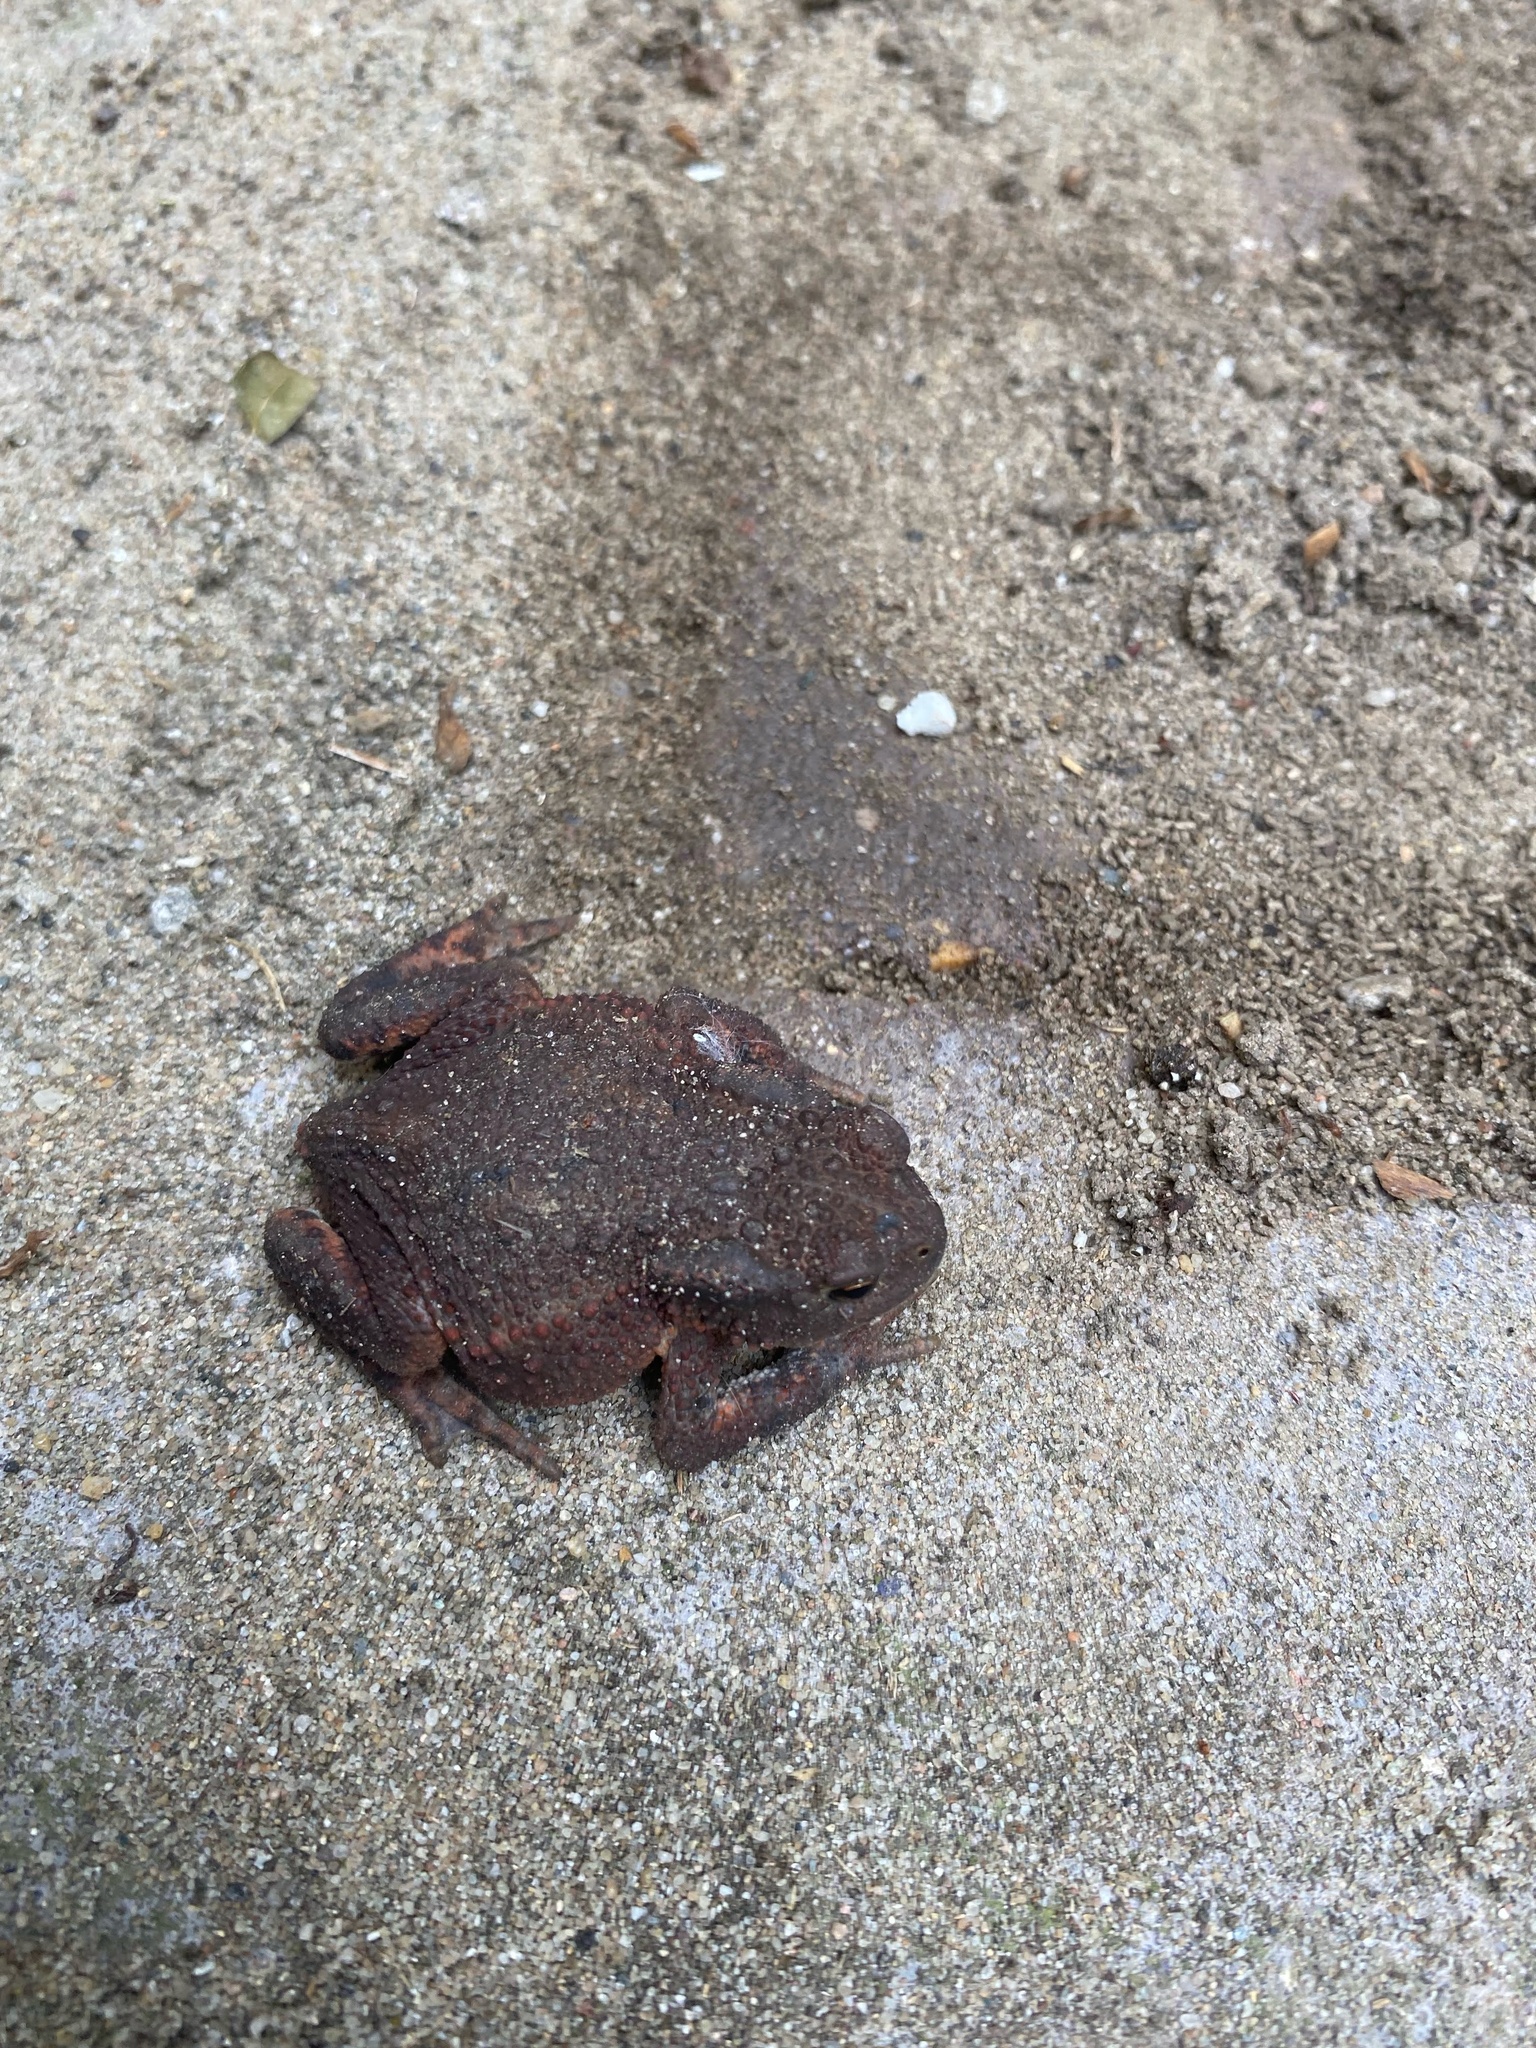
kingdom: Animalia
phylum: Chordata
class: Amphibia
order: Anura
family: Bufonidae
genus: Bufo
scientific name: Bufo bufo
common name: Common toad
